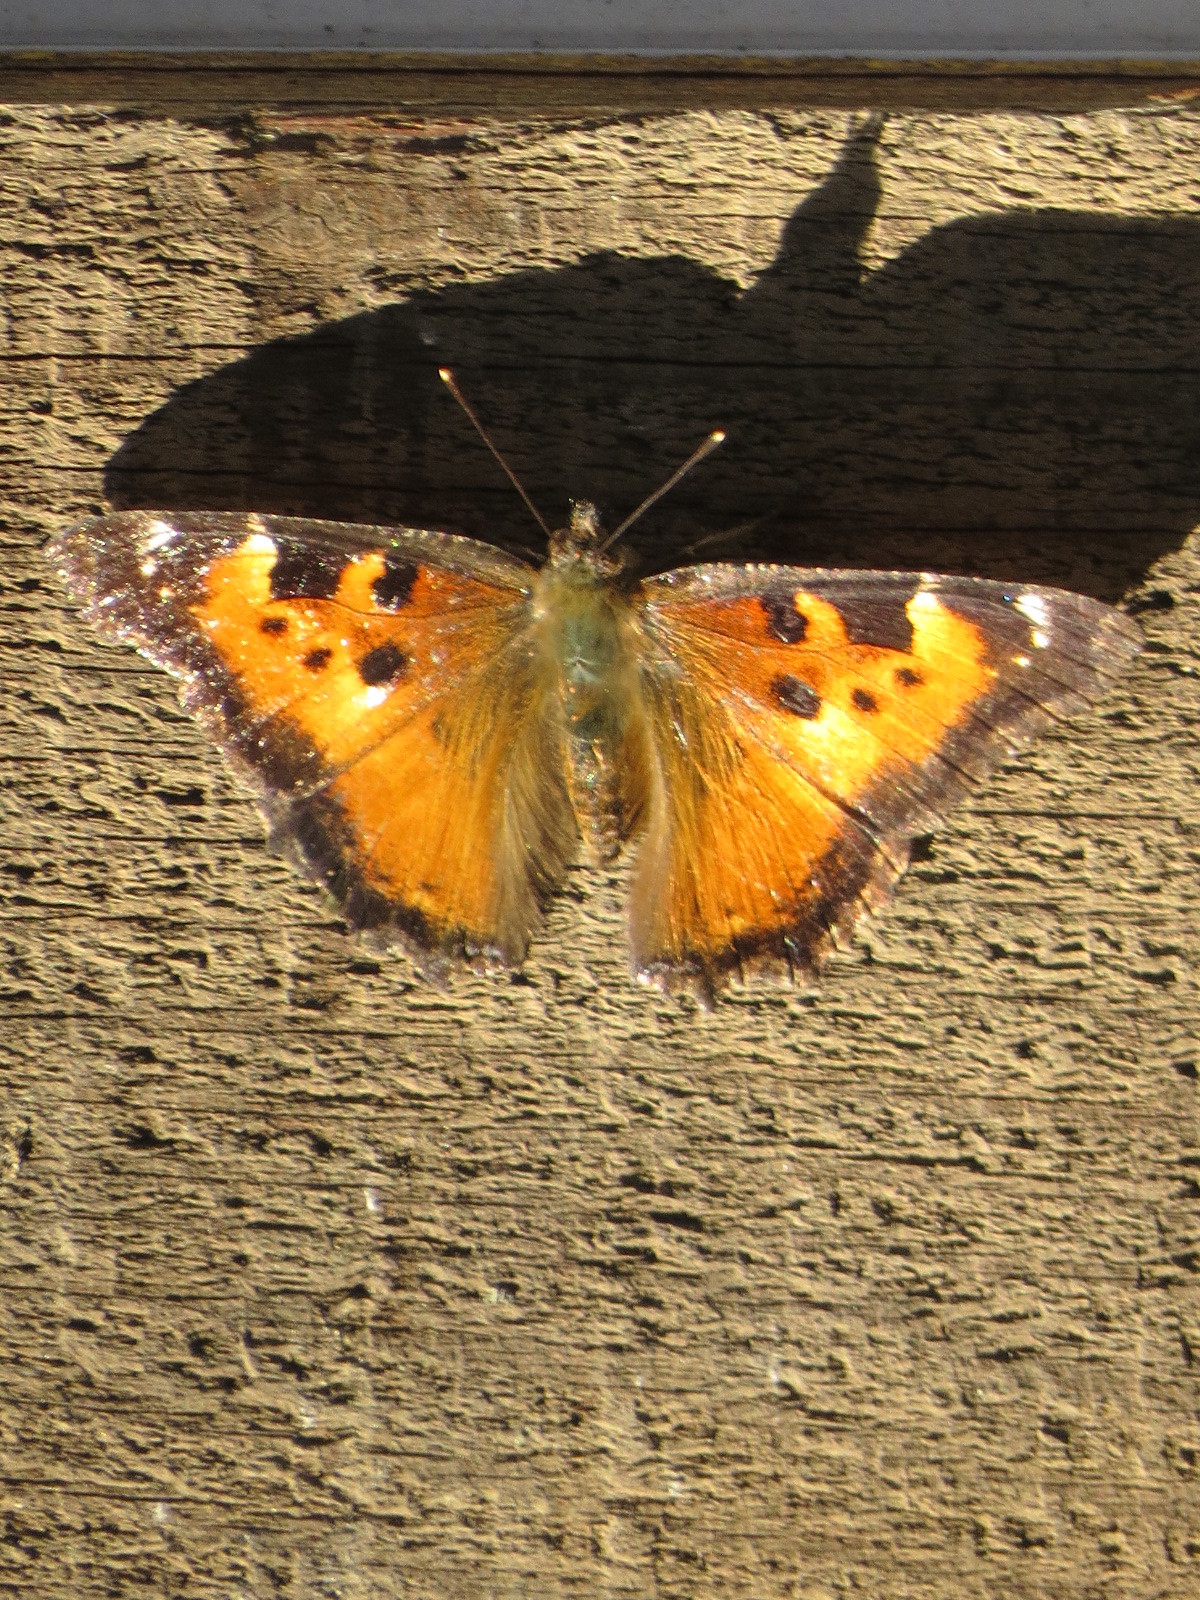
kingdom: Animalia
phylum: Arthropoda
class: Insecta
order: Lepidoptera
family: Nymphalidae
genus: Nymphalis
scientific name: Nymphalis californica
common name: California tortoiseshell
